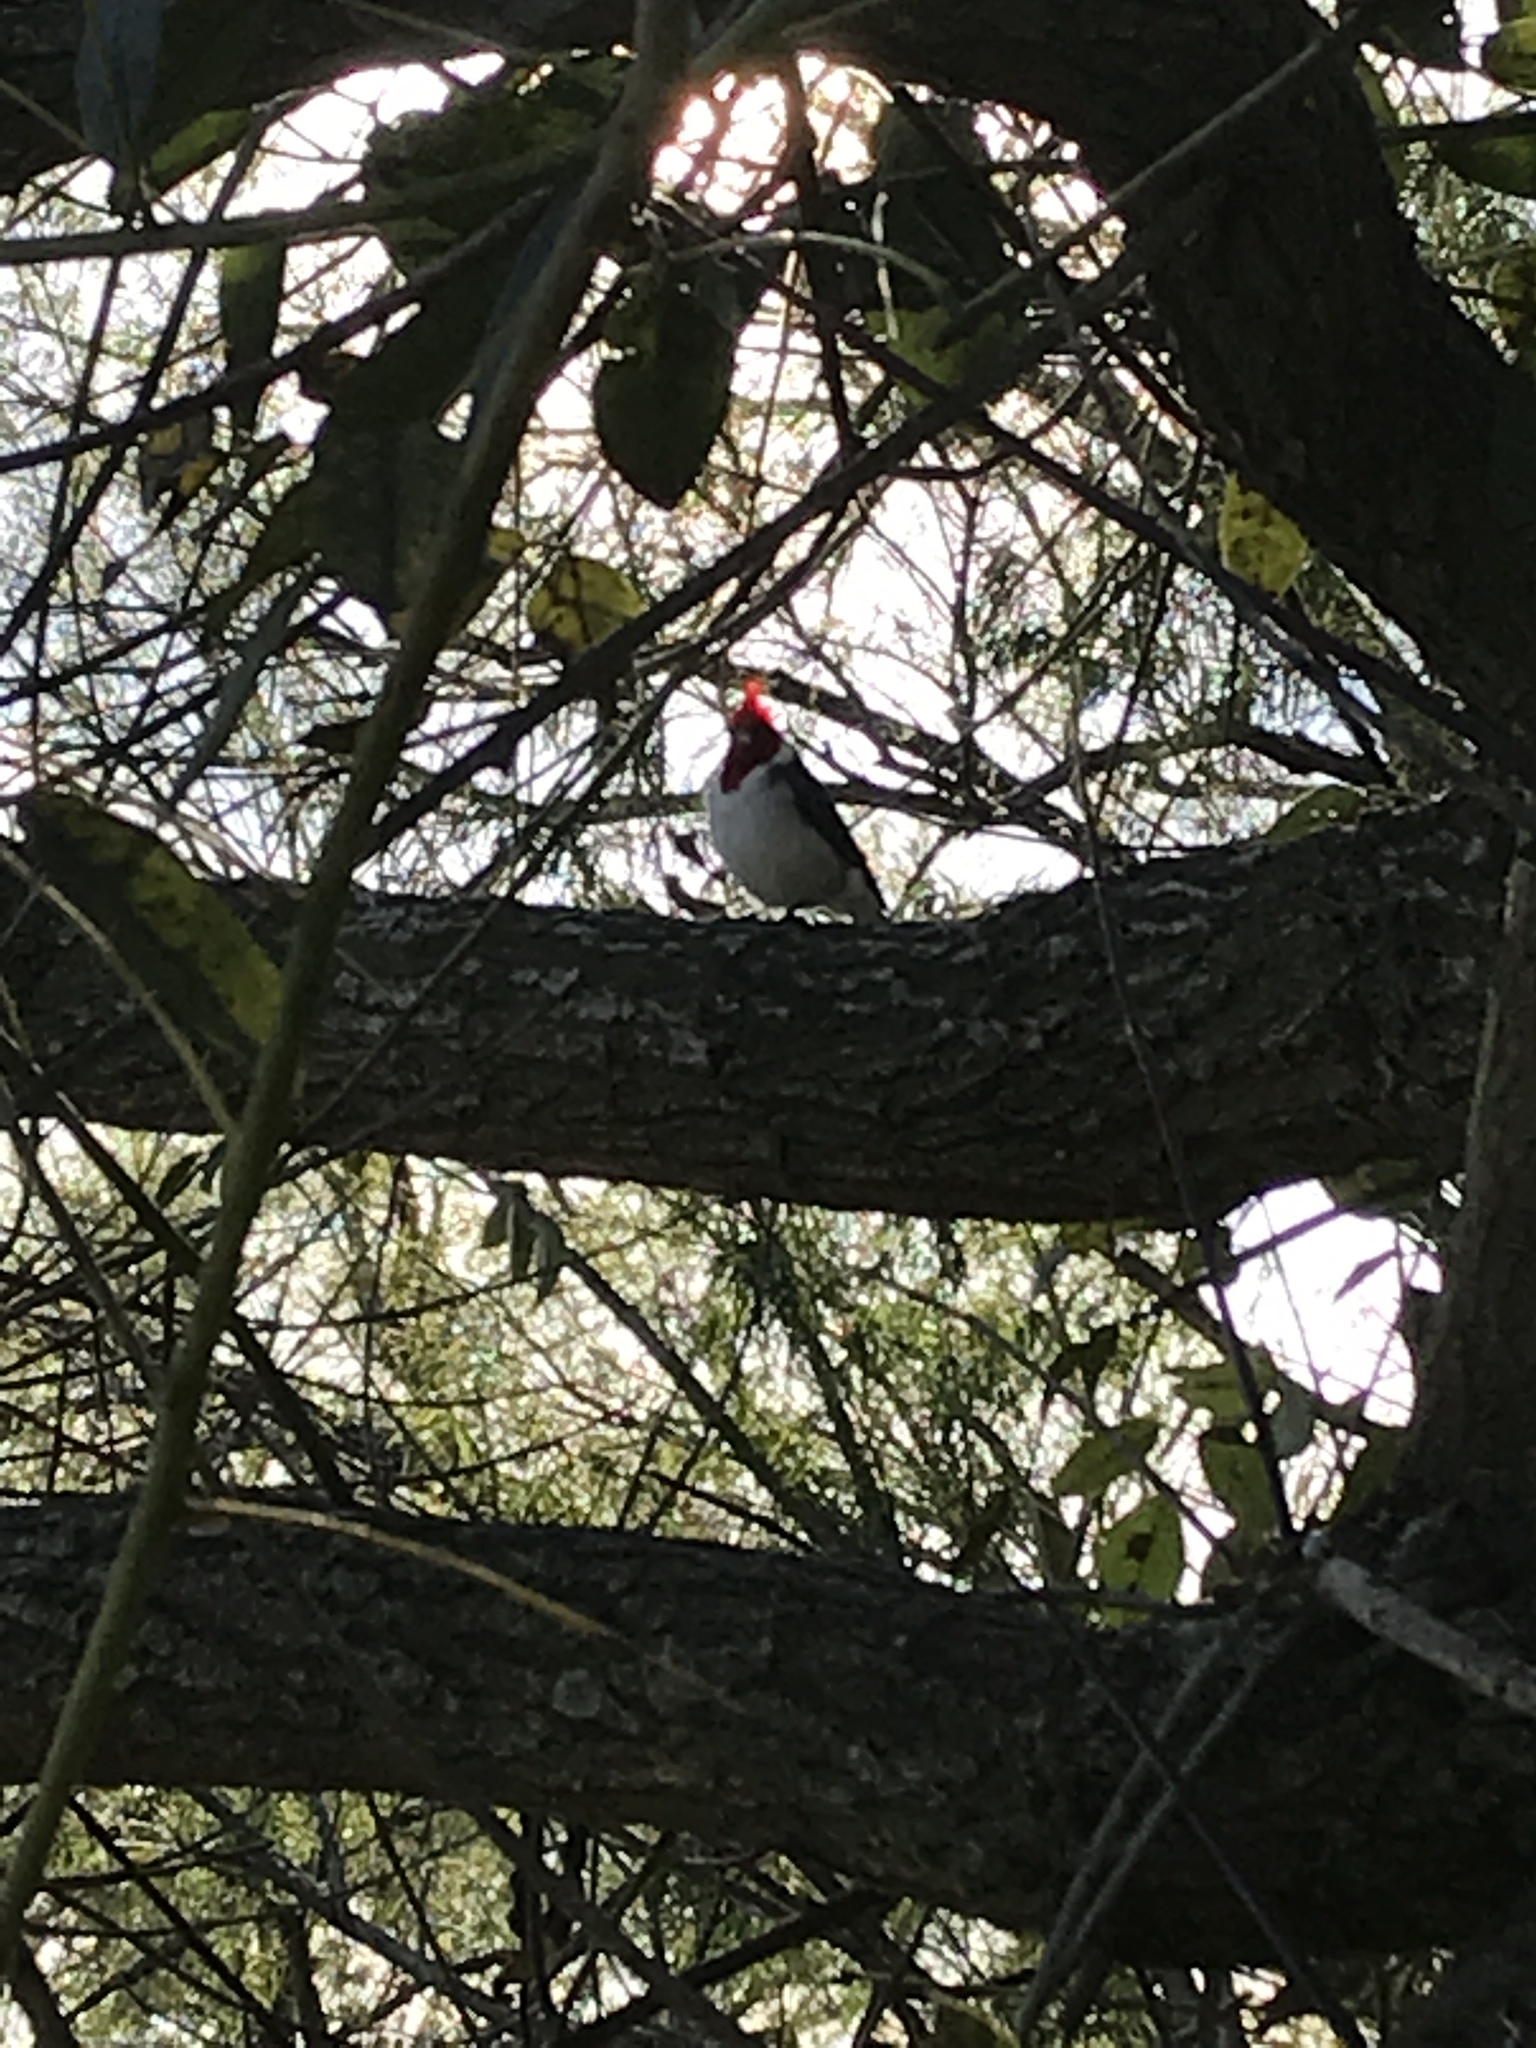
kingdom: Animalia
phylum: Chordata
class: Aves
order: Passeriformes
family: Thraupidae
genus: Paroaria
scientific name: Paroaria coronata
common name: Red-crested cardinal
